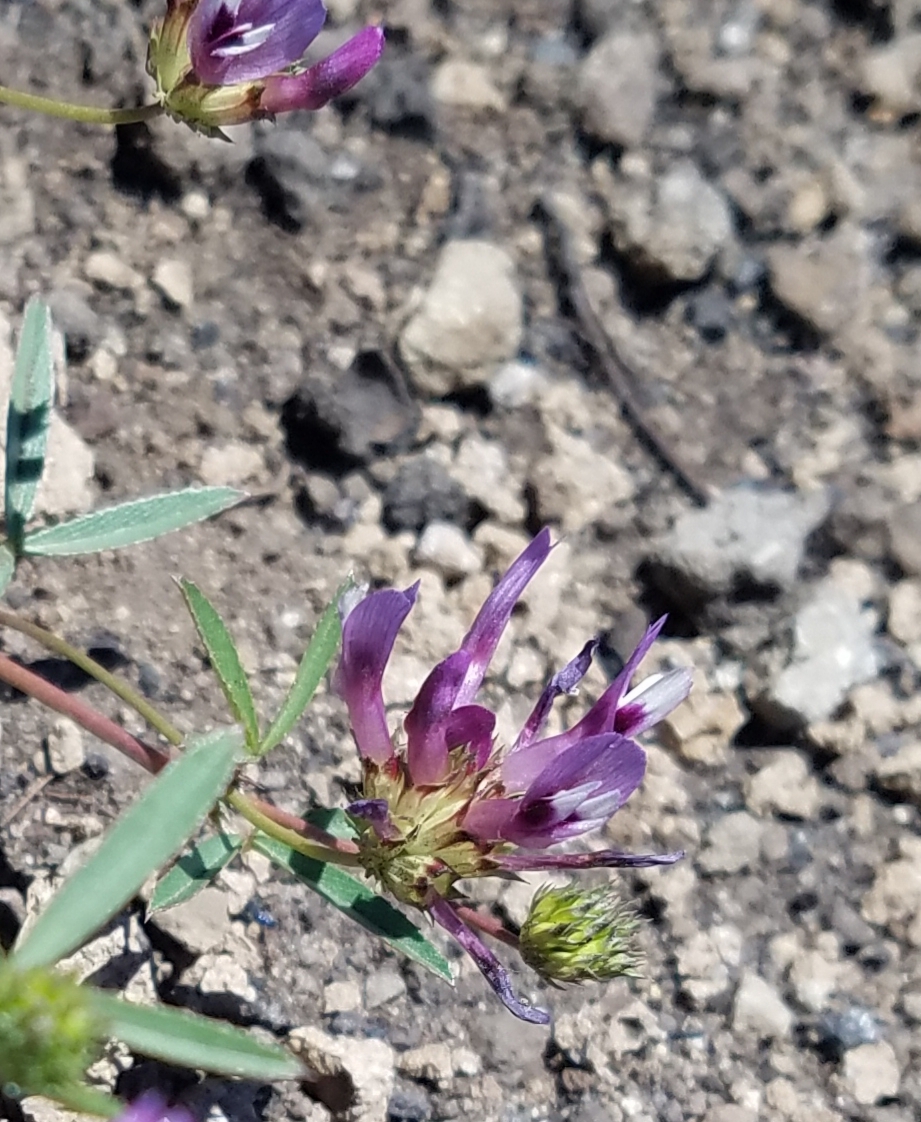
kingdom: Plantae
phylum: Tracheophyta
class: Magnoliopsida
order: Fabales
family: Fabaceae
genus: Trifolium
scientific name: Trifolium willdenovii
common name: Tomcat clover
